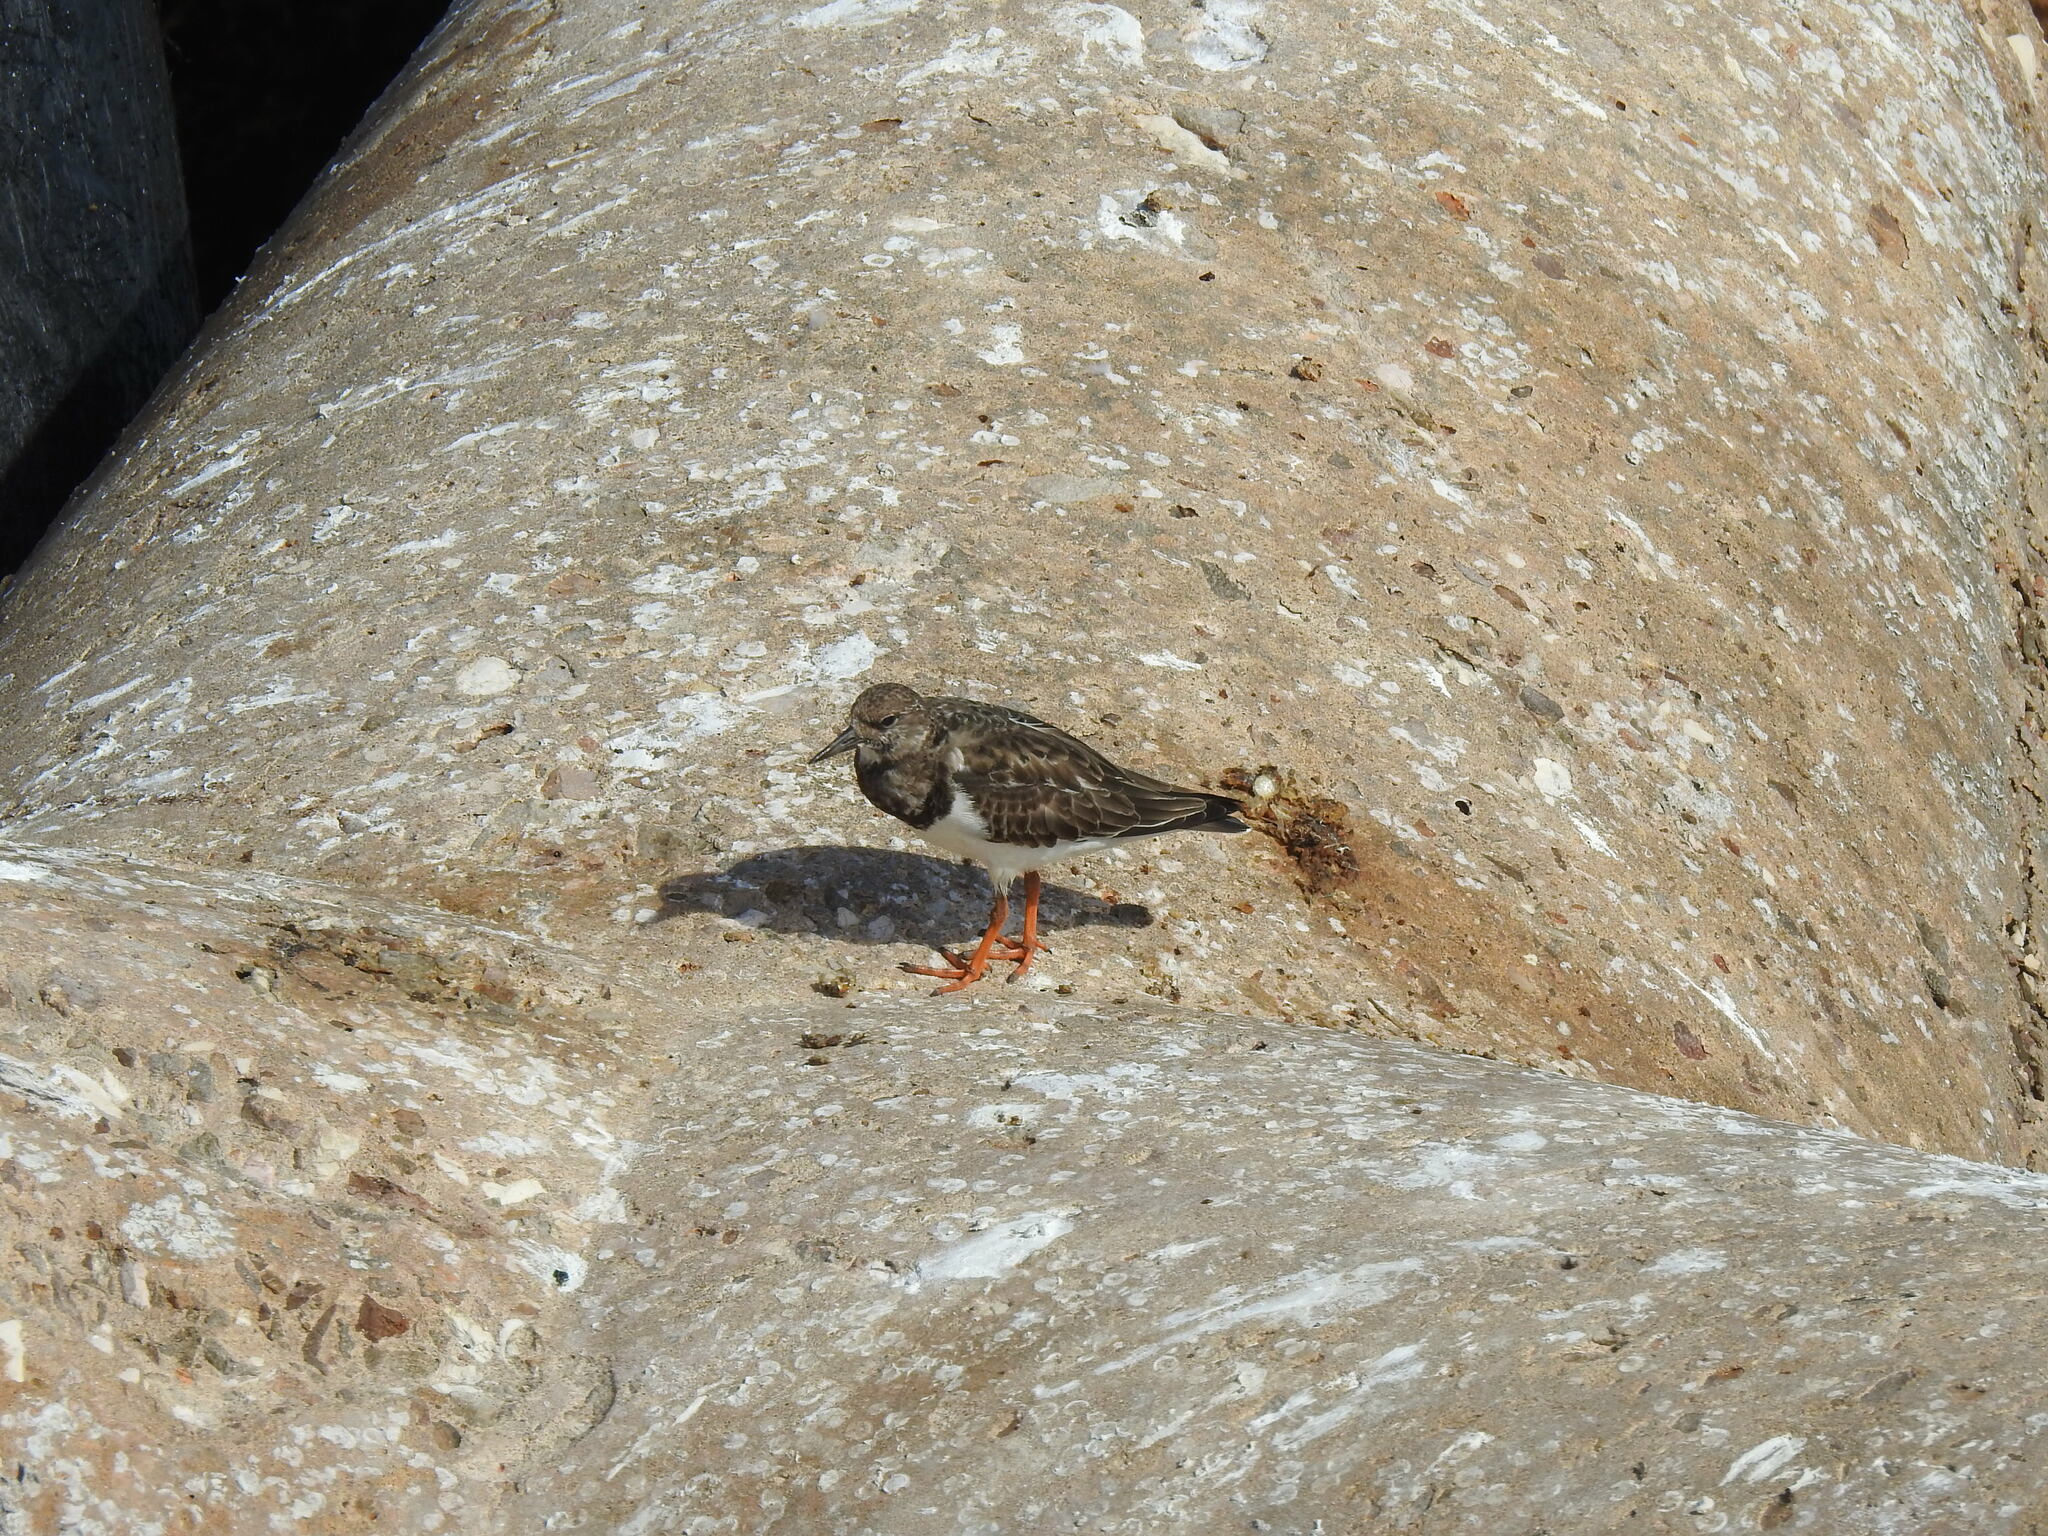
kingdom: Animalia
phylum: Chordata
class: Aves
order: Charadriiformes
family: Scolopacidae
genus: Arenaria
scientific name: Arenaria interpres
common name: Ruddy turnstone
